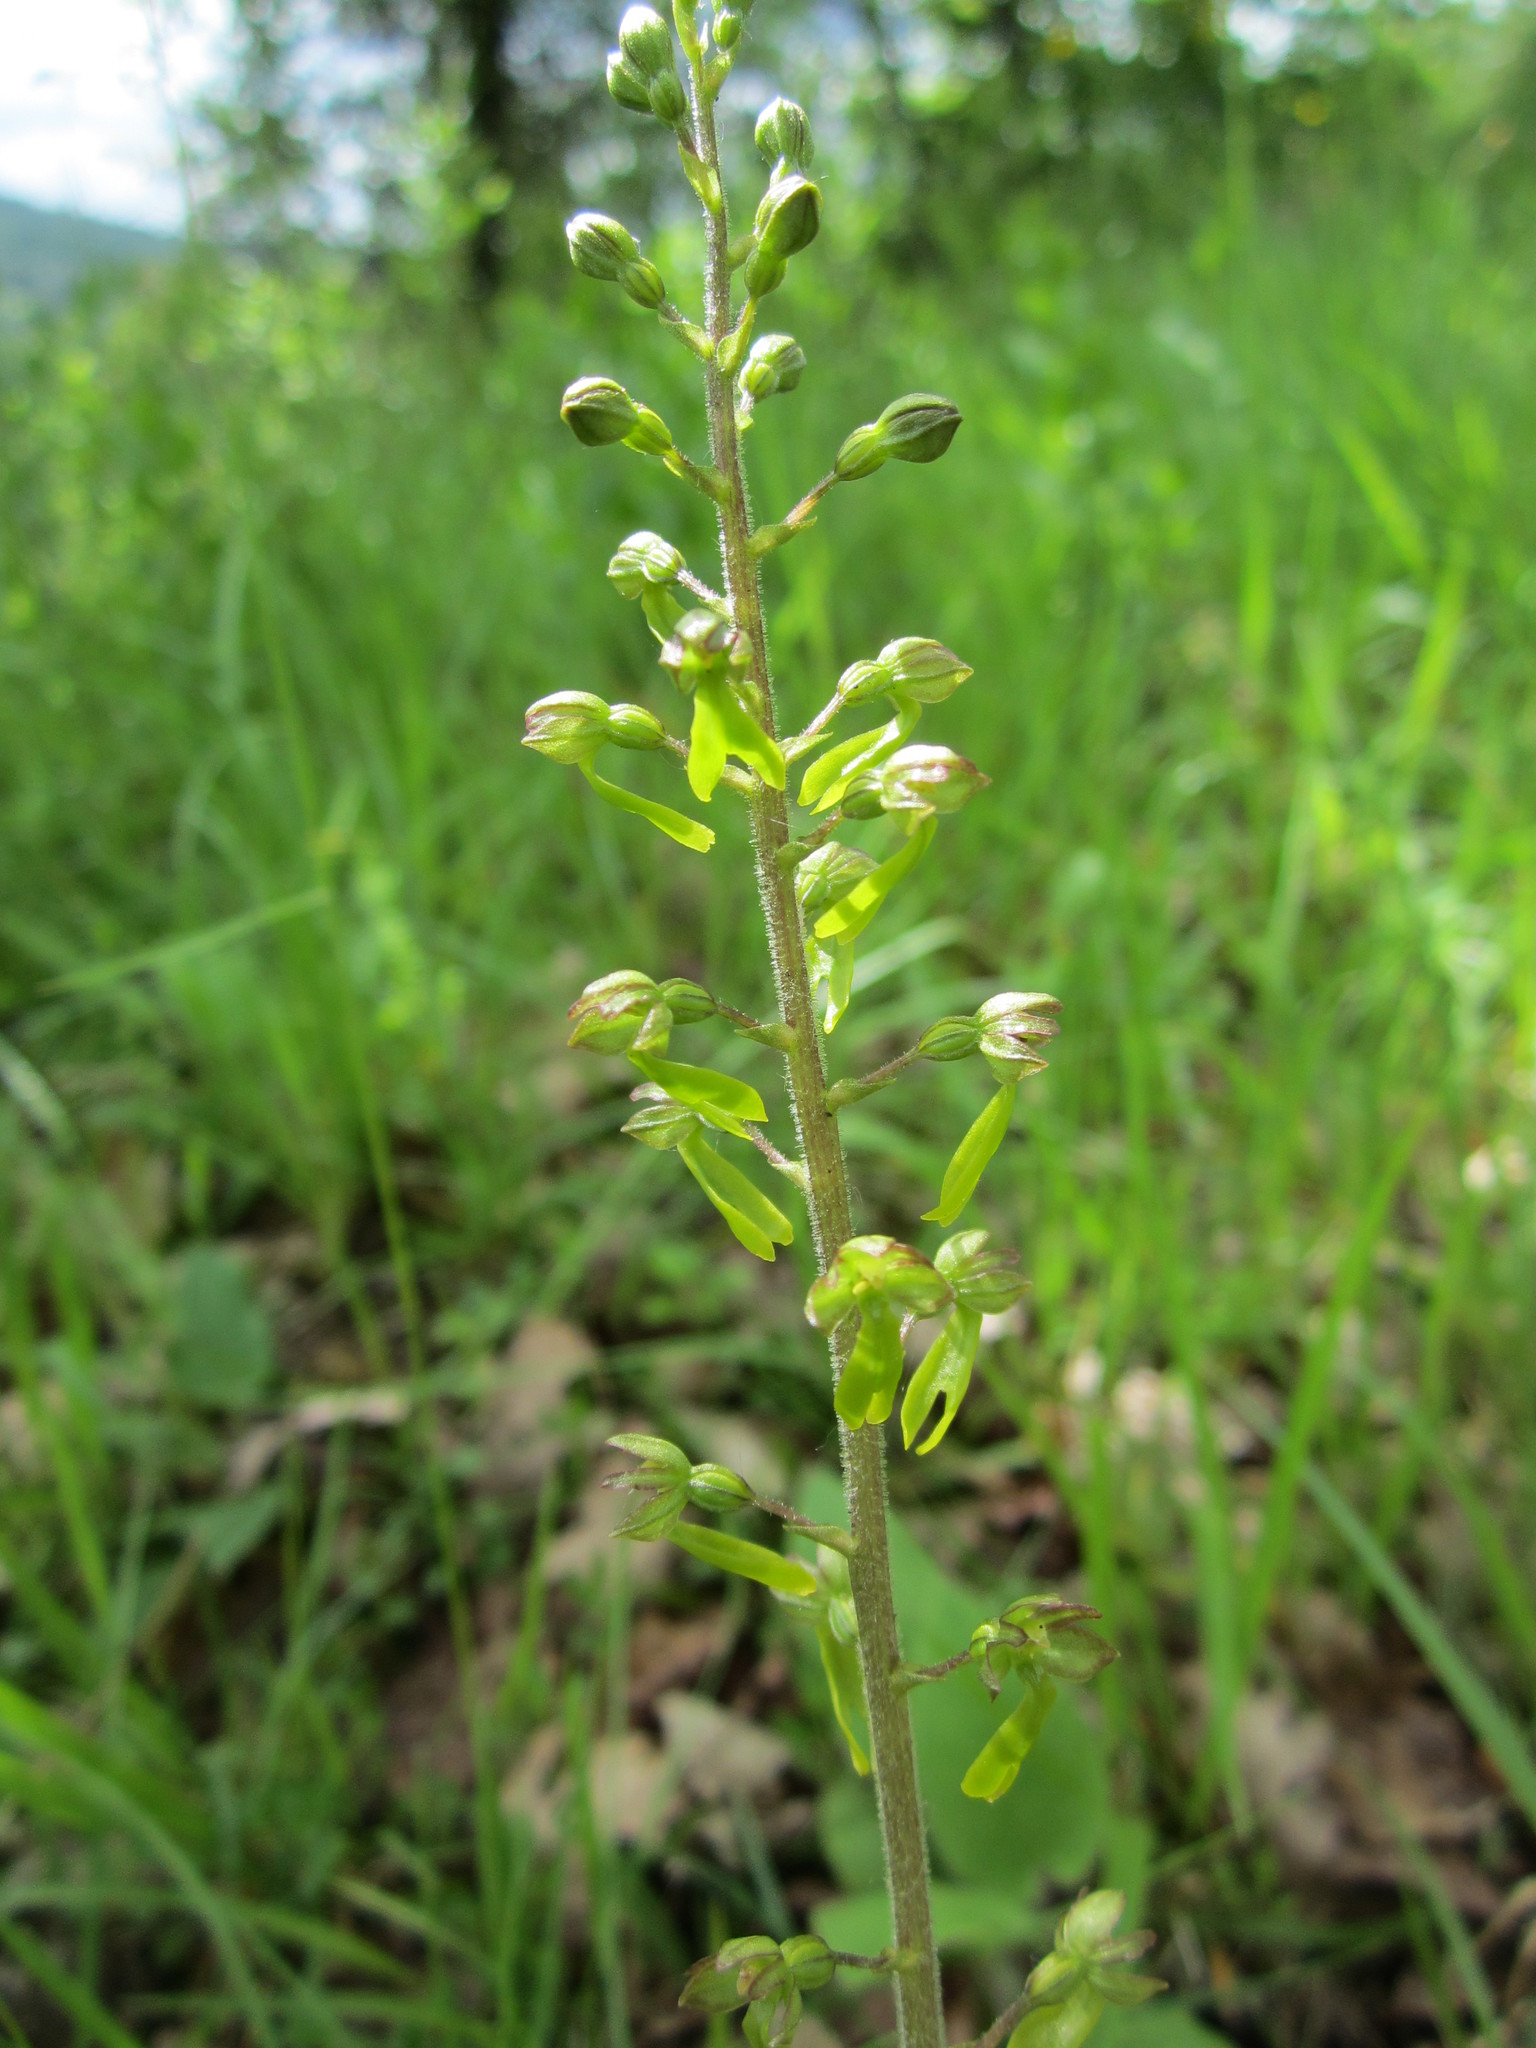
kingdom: Plantae
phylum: Tracheophyta
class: Liliopsida
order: Asparagales
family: Orchidaceae
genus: Neottia
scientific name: Neottia ovata
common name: Common twayblade
